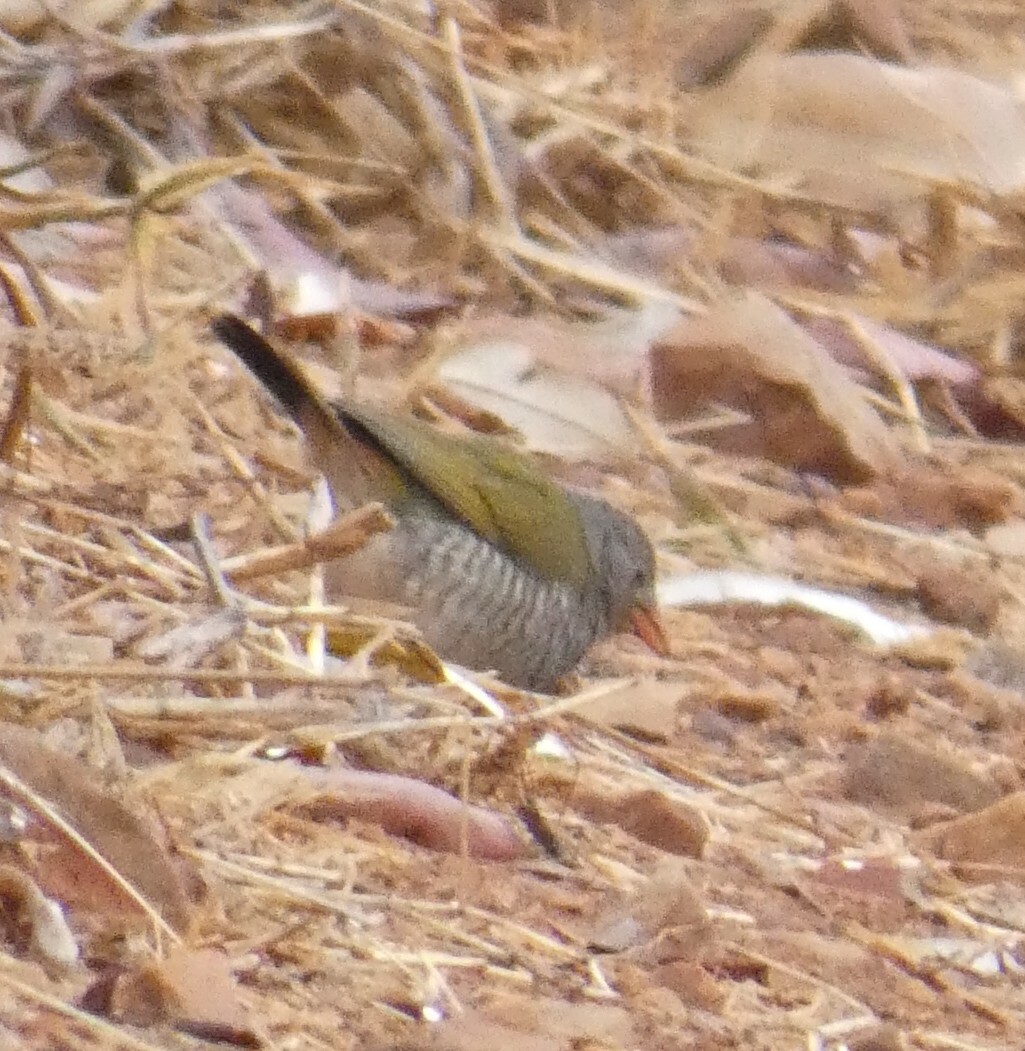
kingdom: Animalia
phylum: Chordata
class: Aves
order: Passeriformes
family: Estrildidae
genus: Pytilia
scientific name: Pytilia melba
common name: Green-winged pytilia
